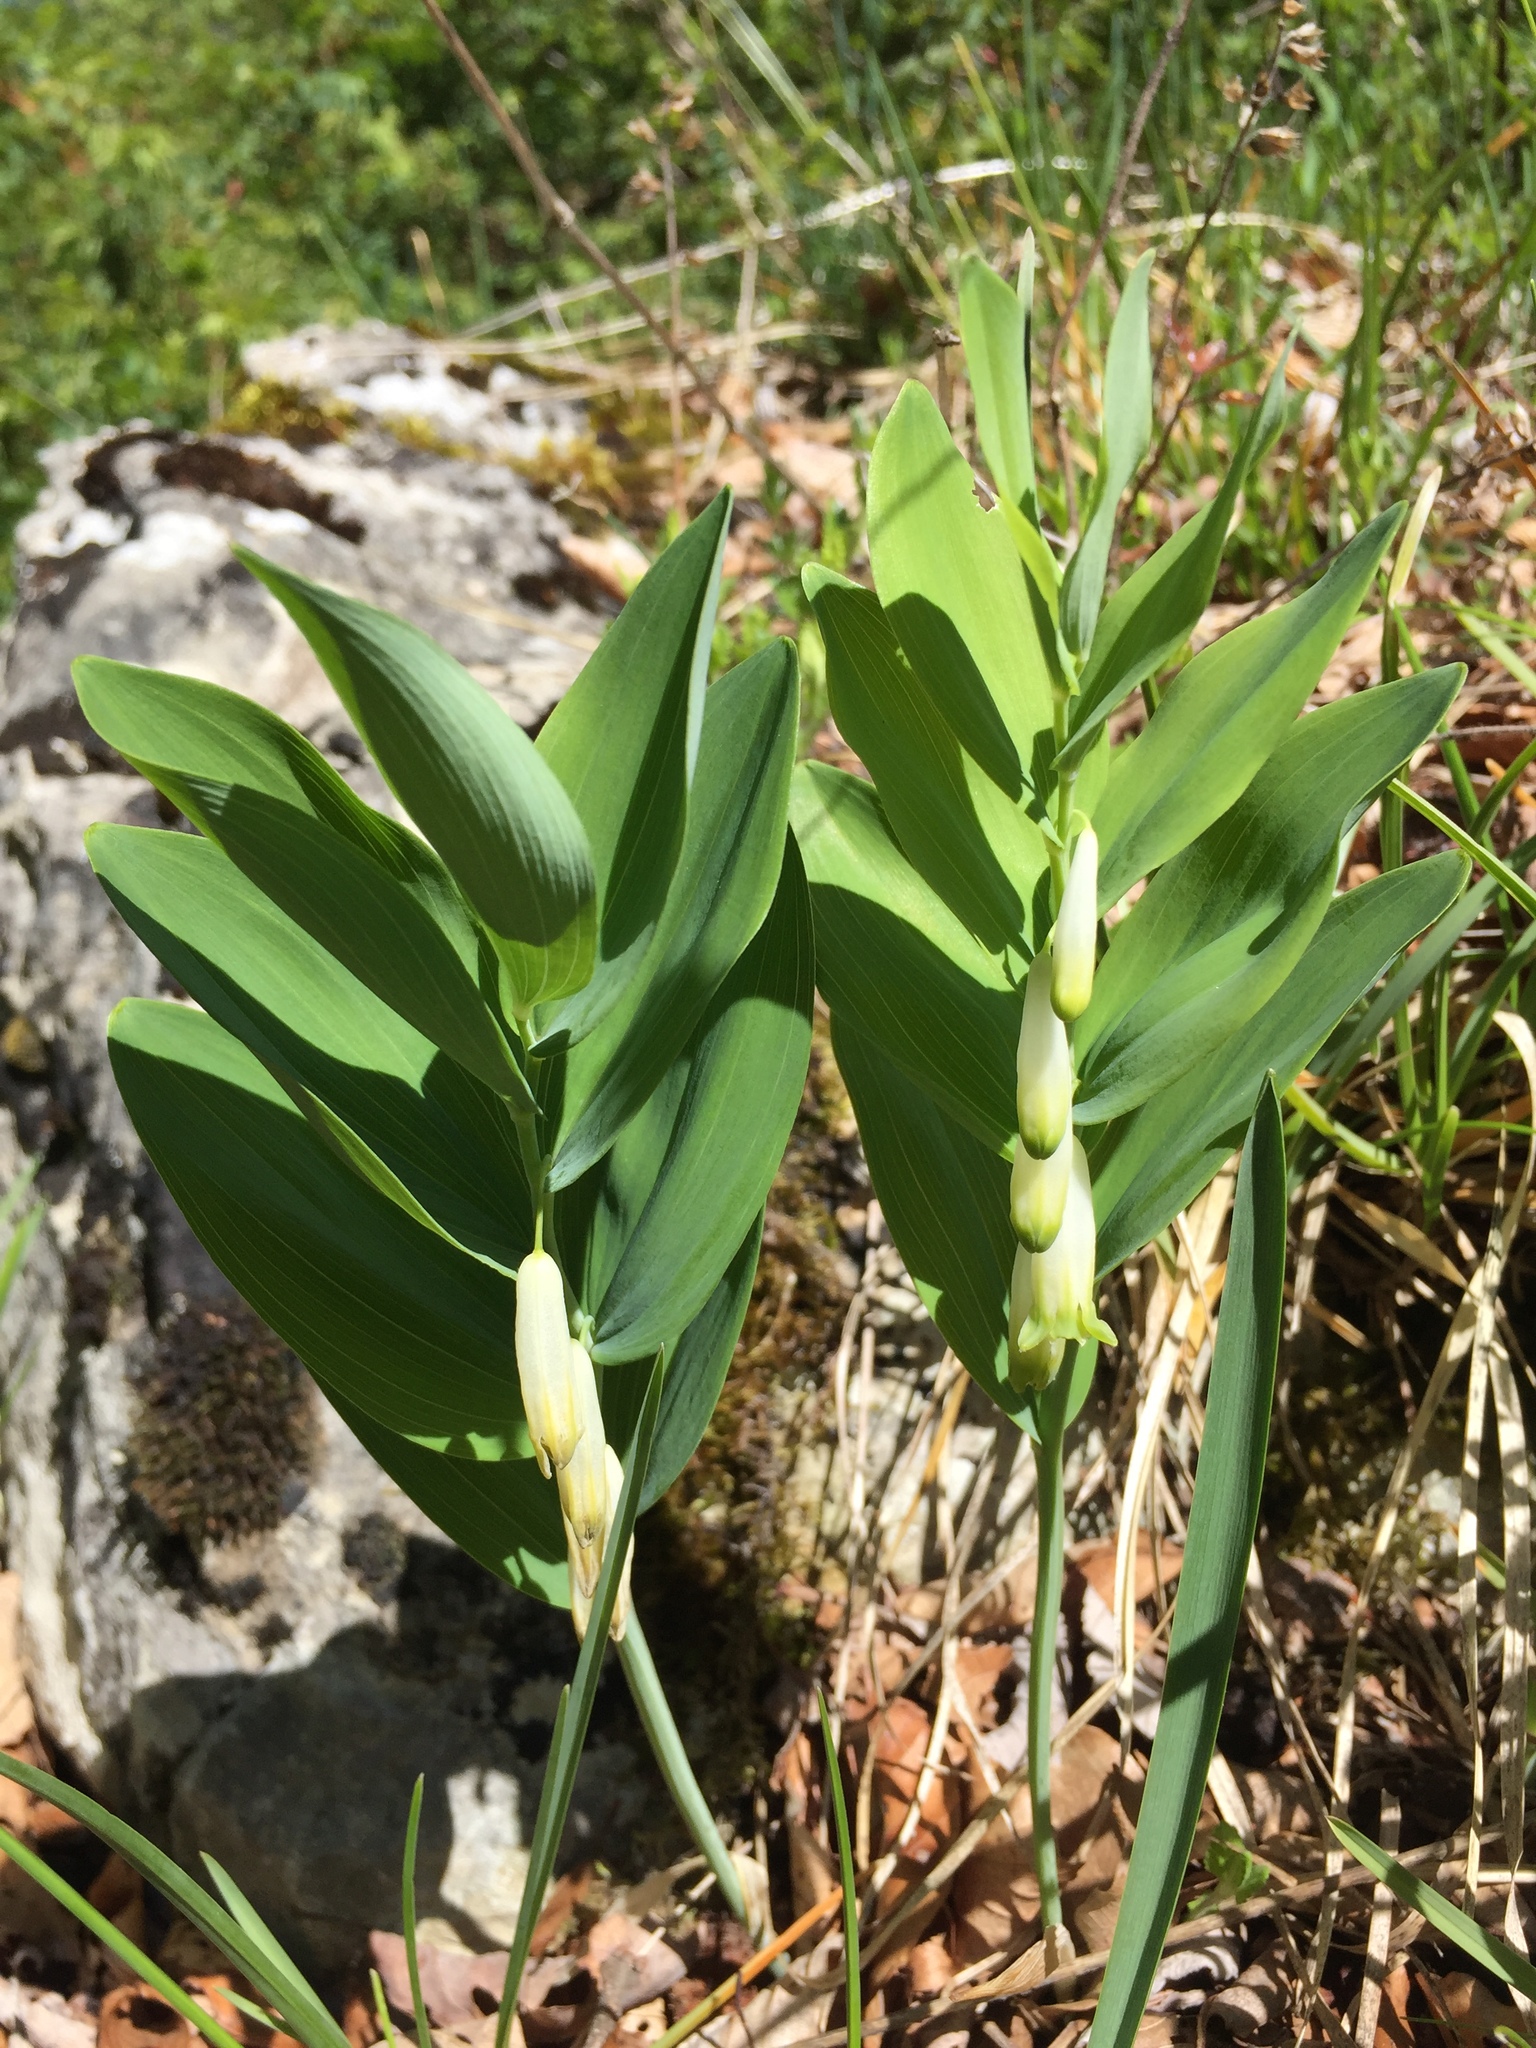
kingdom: Plantae
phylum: Tracheophyta
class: Liliopsida
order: Asparagales
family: Asparagaceae
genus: Polygonatum
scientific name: Polygonatum odoratum
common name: Angular solomon's-seal
